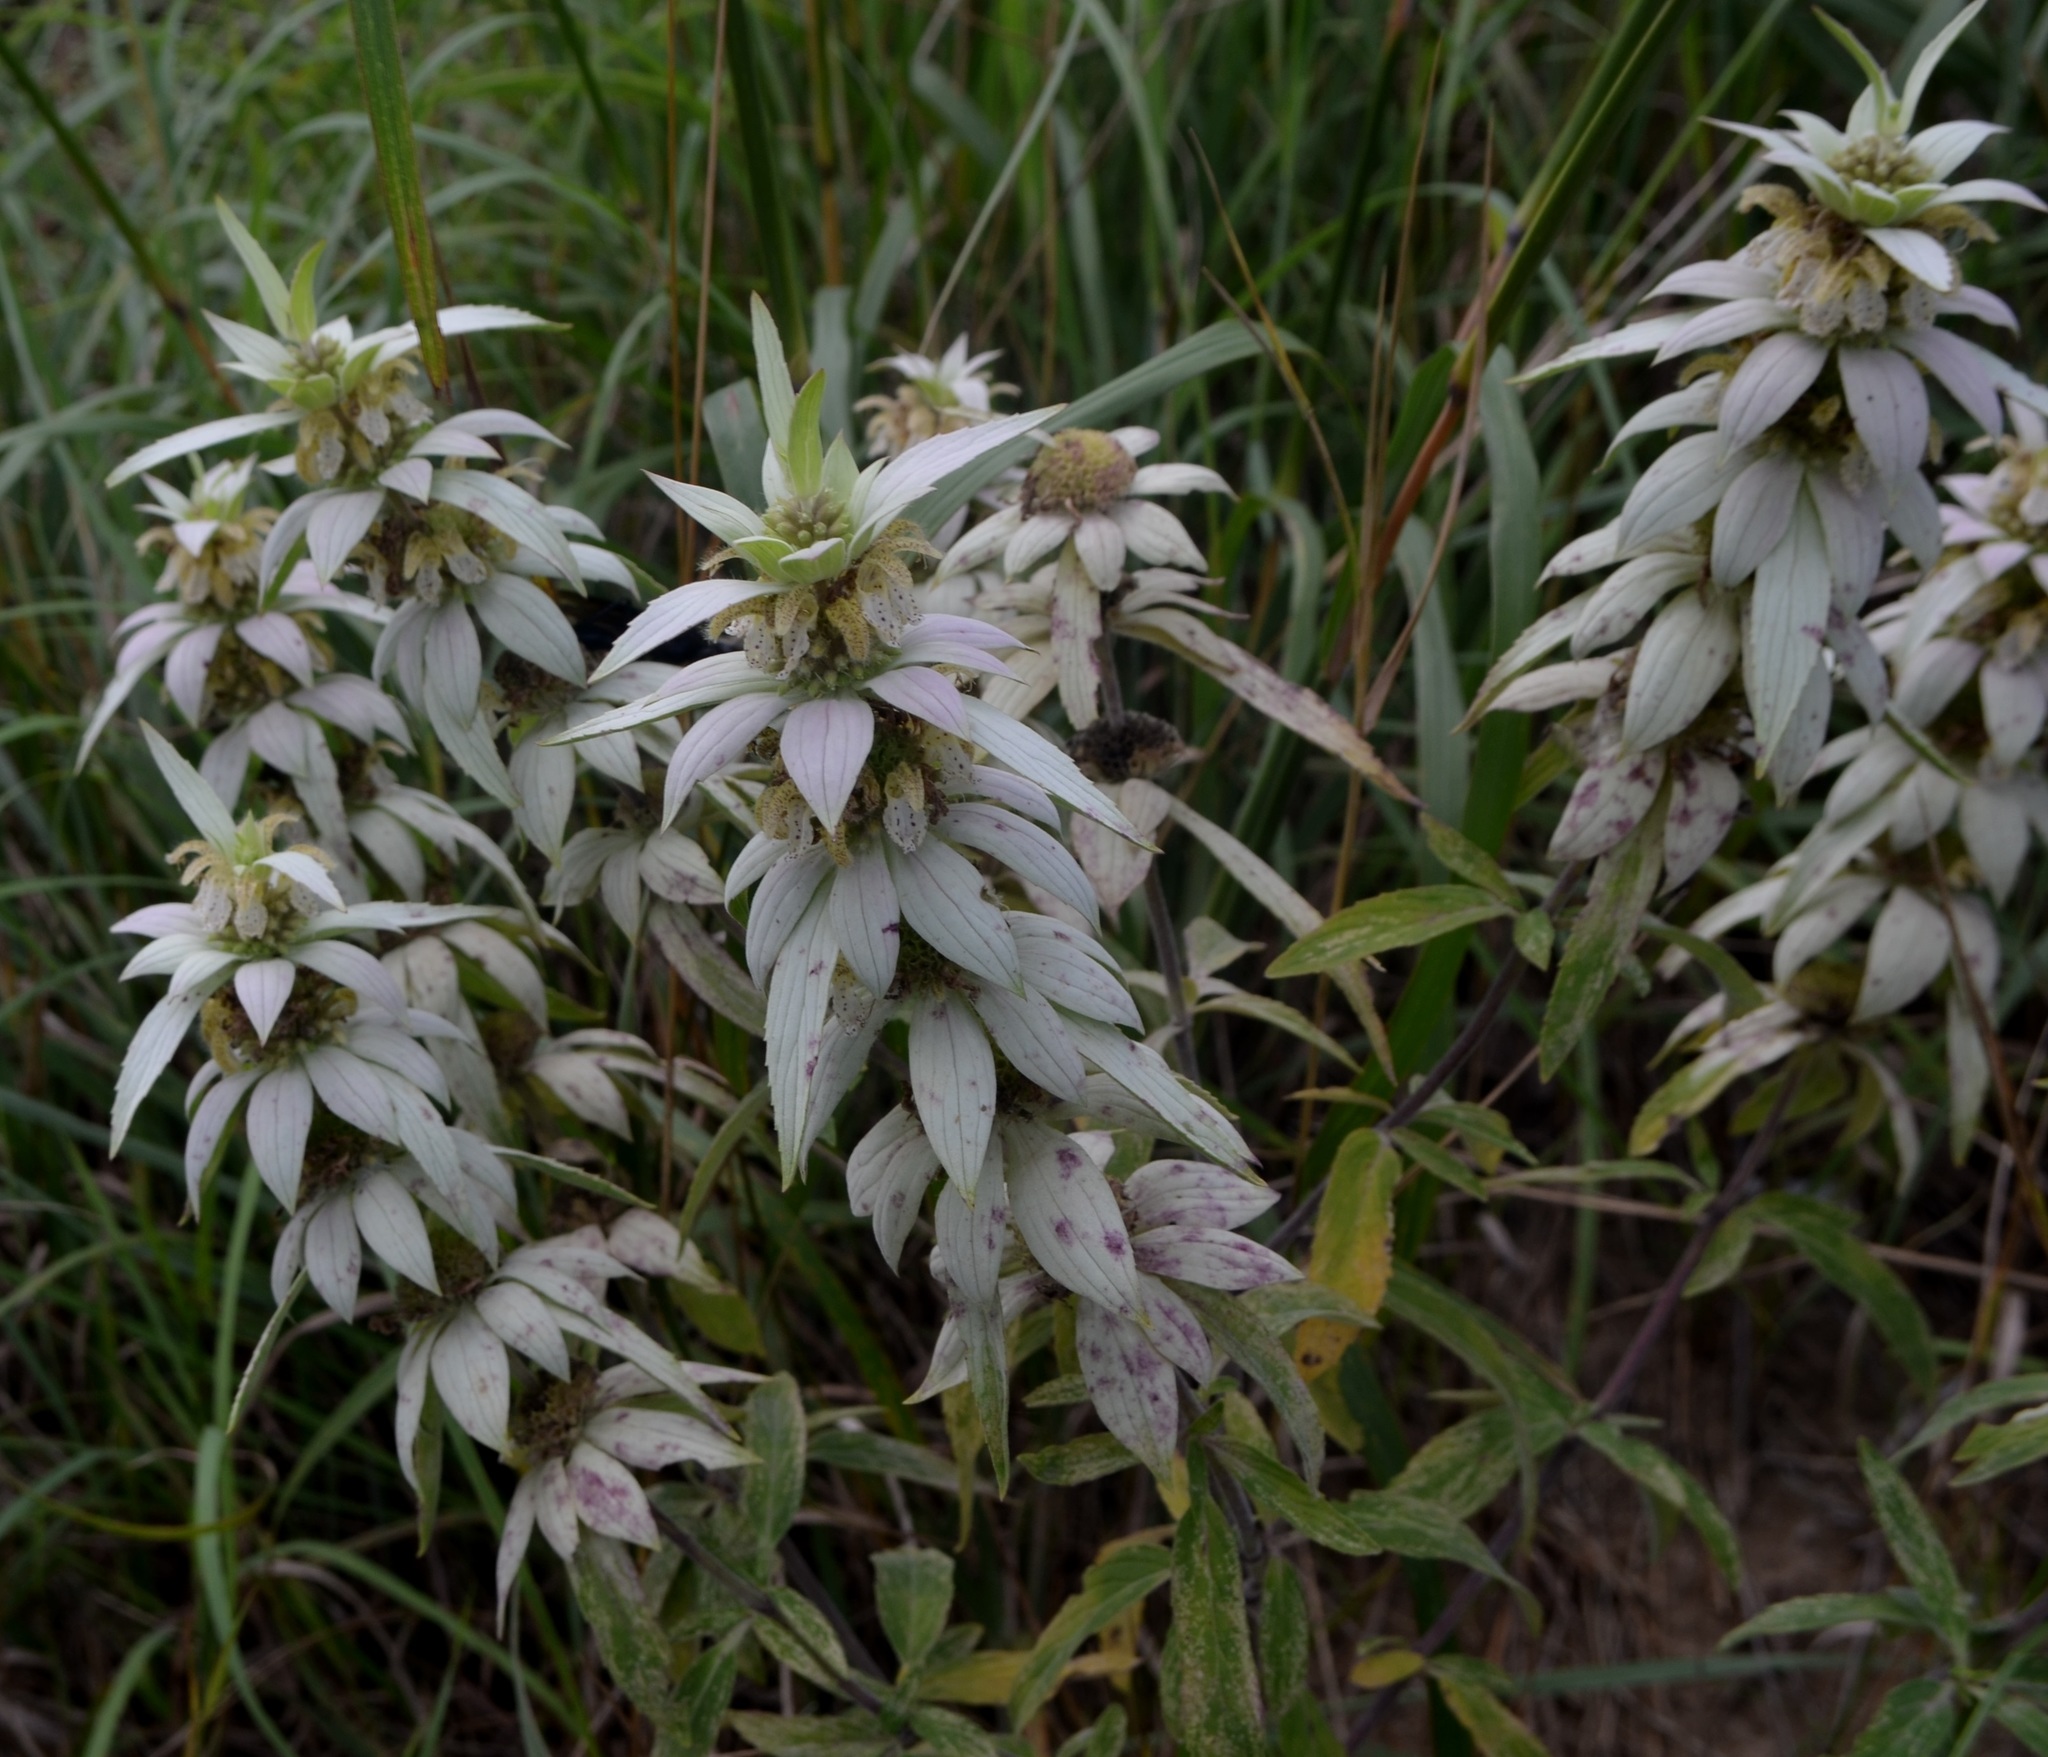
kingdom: Plantae
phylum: Tracheophyta
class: Magnoliopsida
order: Lamiales
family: Lamiaceae
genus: Monarda
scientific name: Monarda punctata
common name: Dotted monarda
